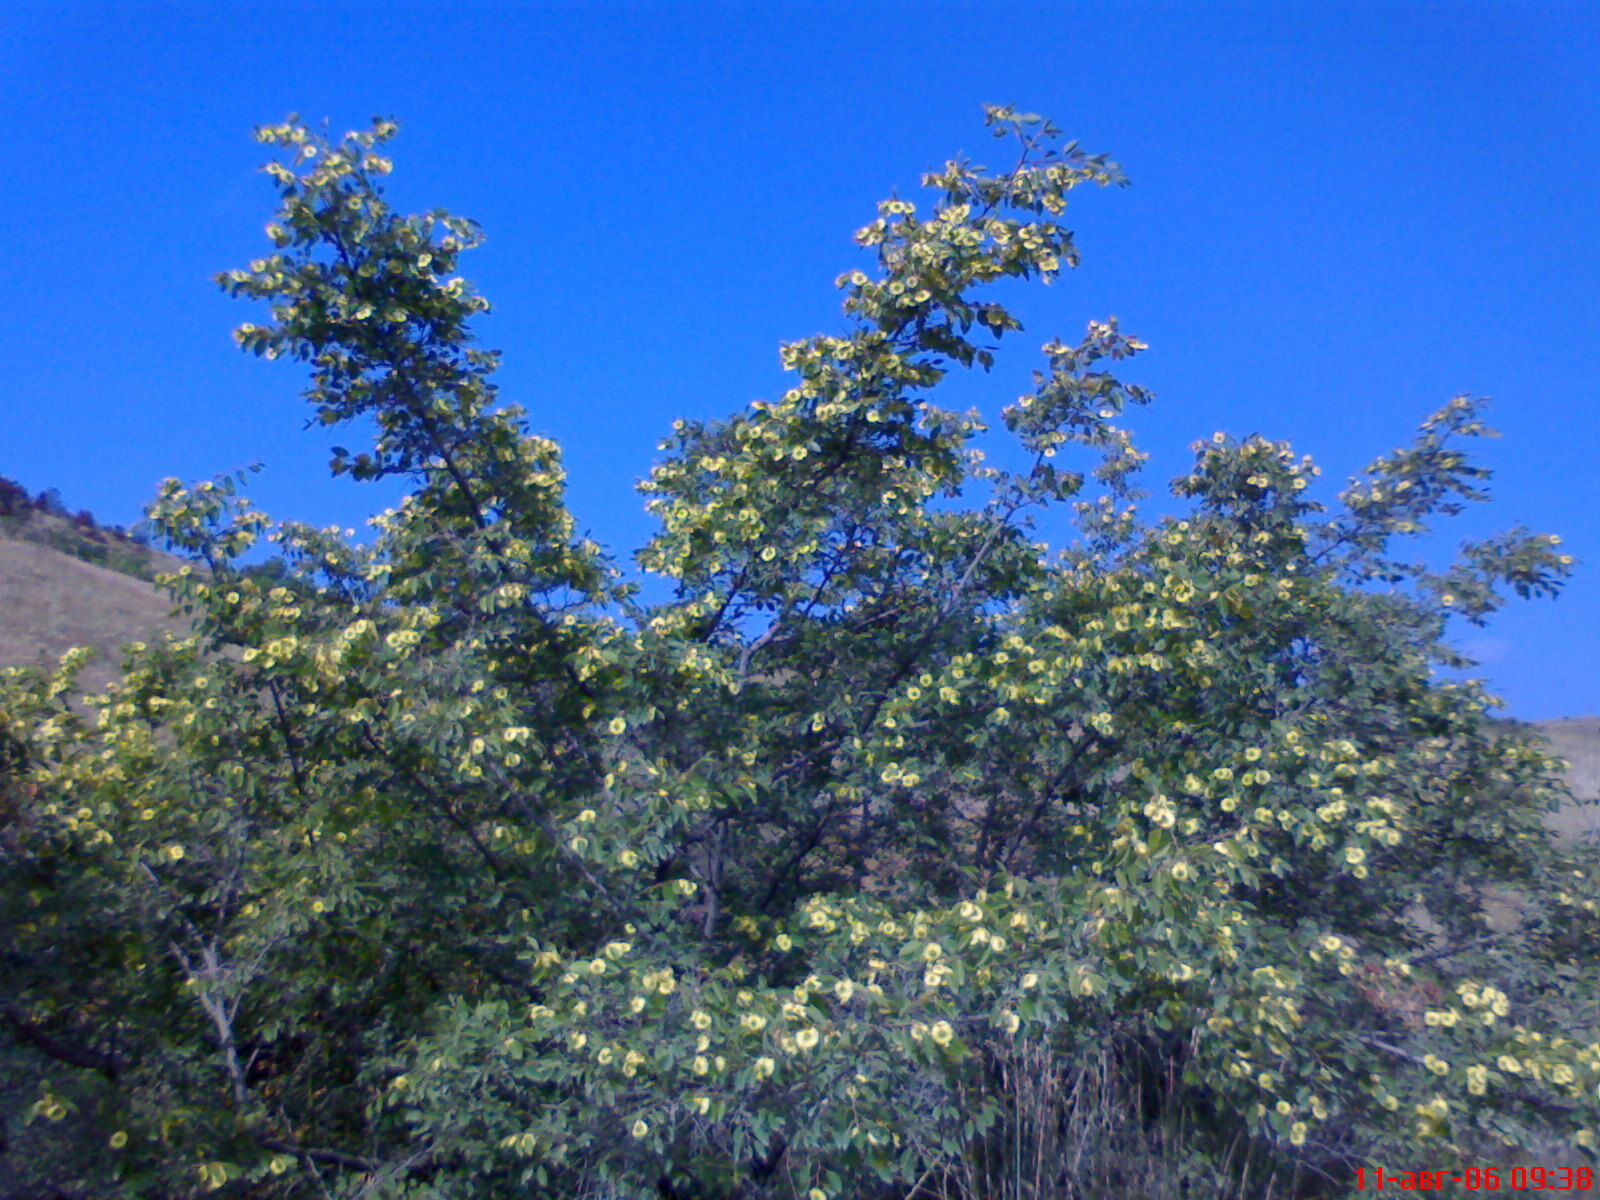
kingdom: Plantae
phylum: Tracheophyta
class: Magnoliopsida
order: Rosales
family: Rhamnaceae
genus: Paliurus
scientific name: Paliurus spina-christi
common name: Jeruselem thorn
